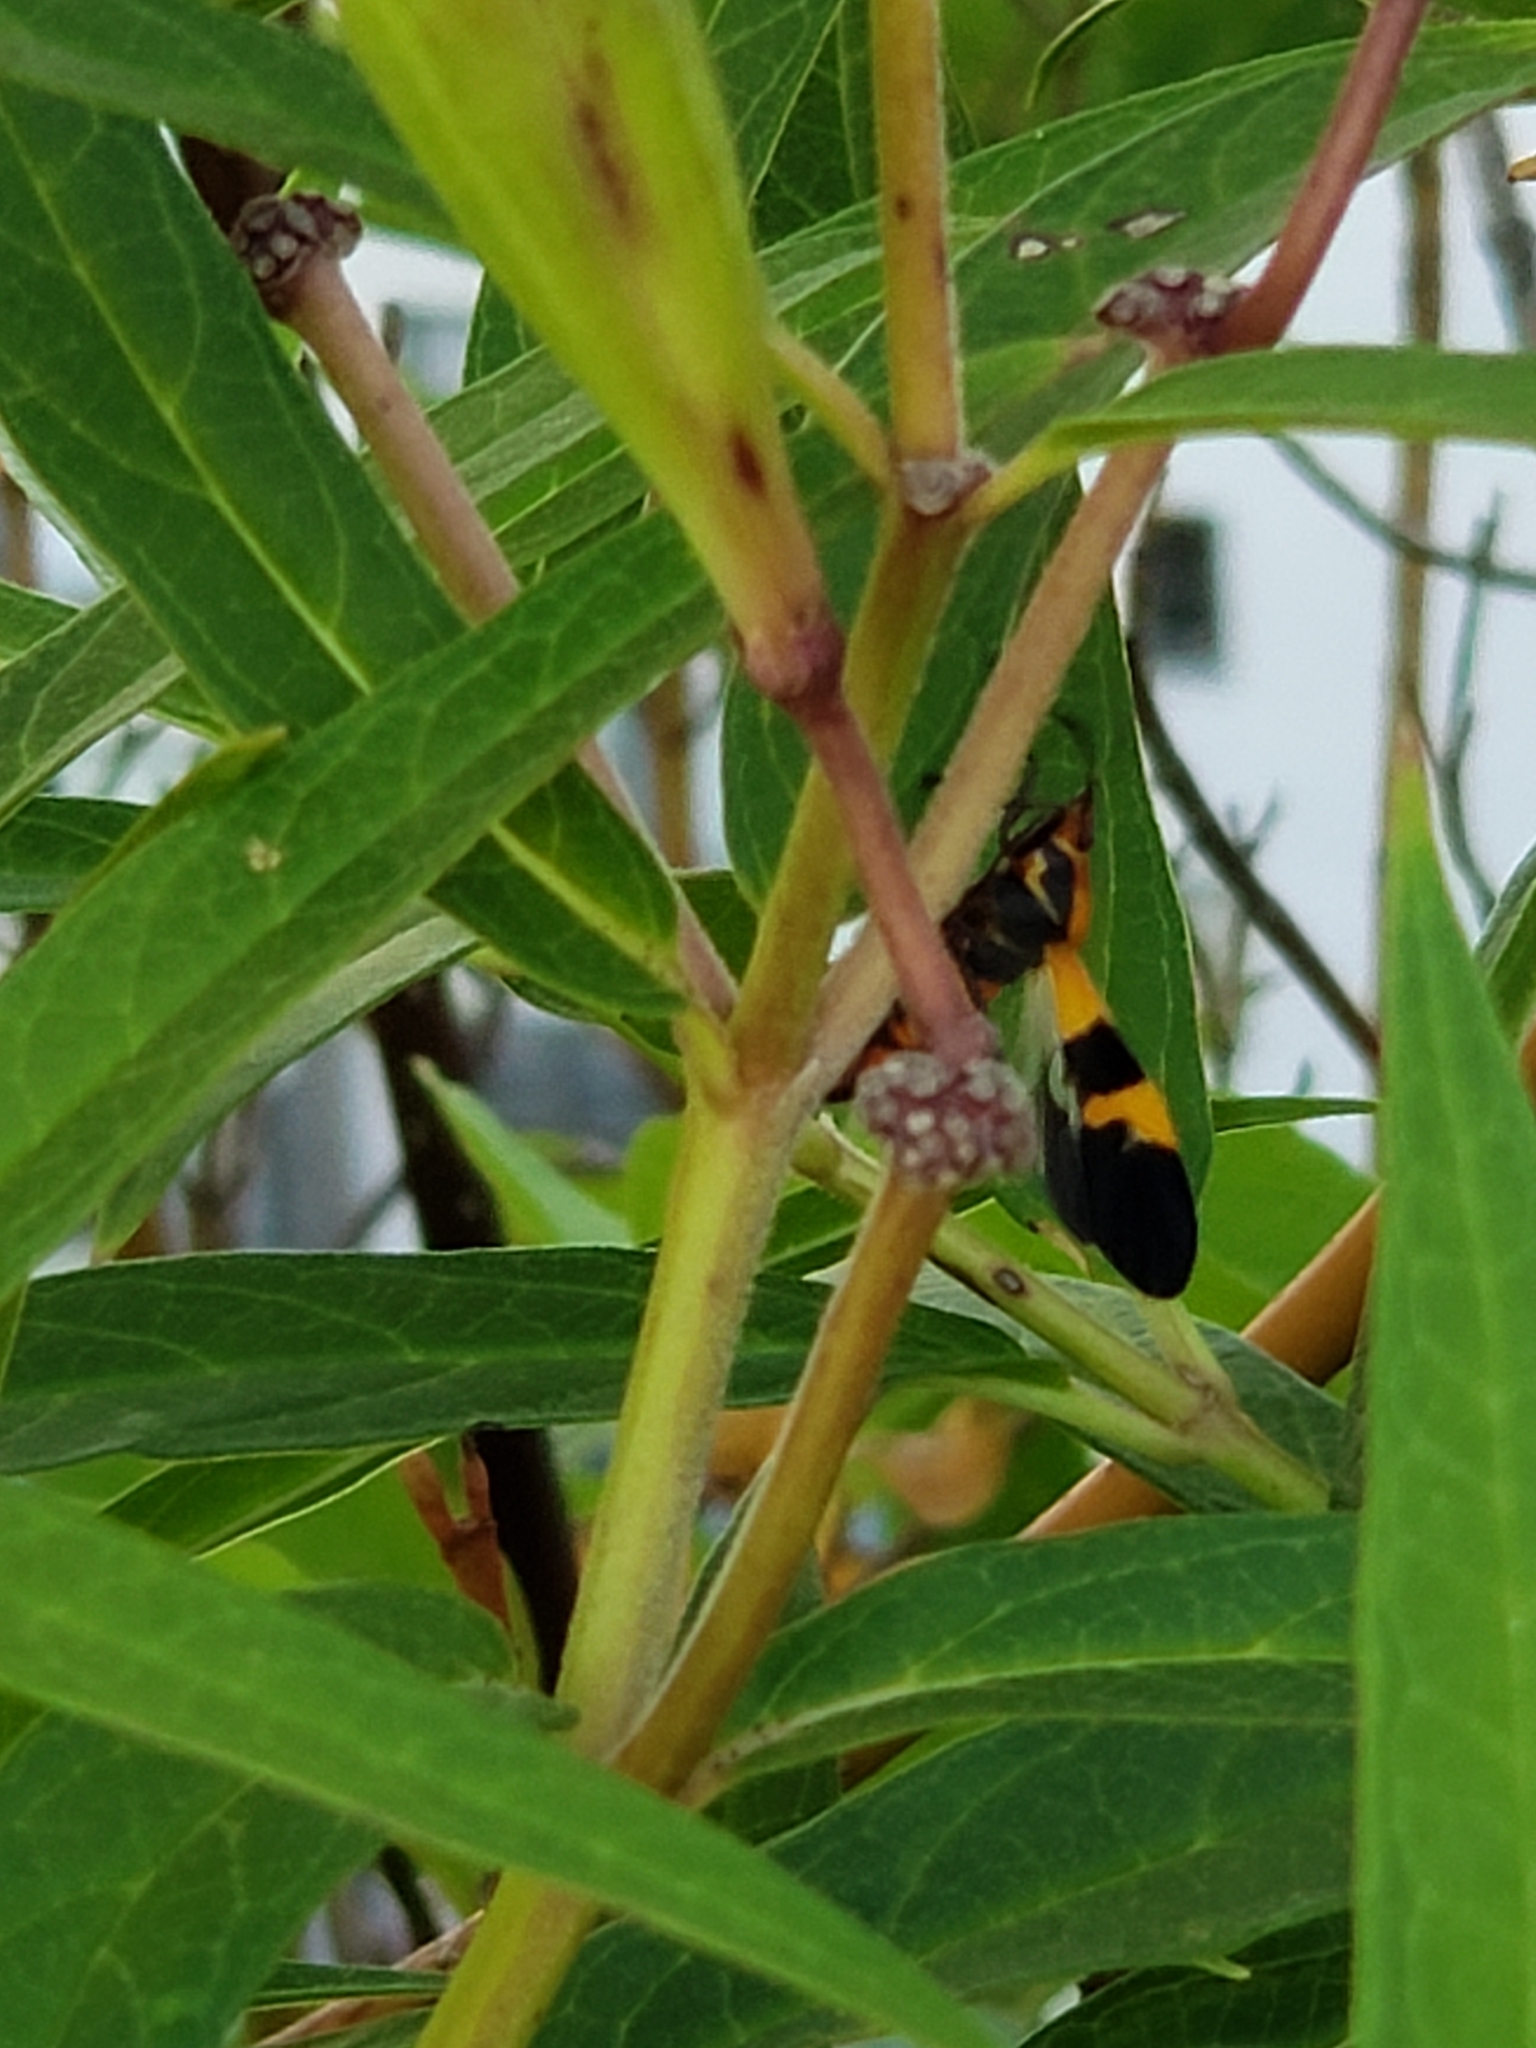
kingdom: Animalia
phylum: Arthropoda
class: Insecta
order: Hemiptera
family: Lygaeidae
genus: Oncopeltus
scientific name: Oncopeltus fasciatus
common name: Large milkweed bug
